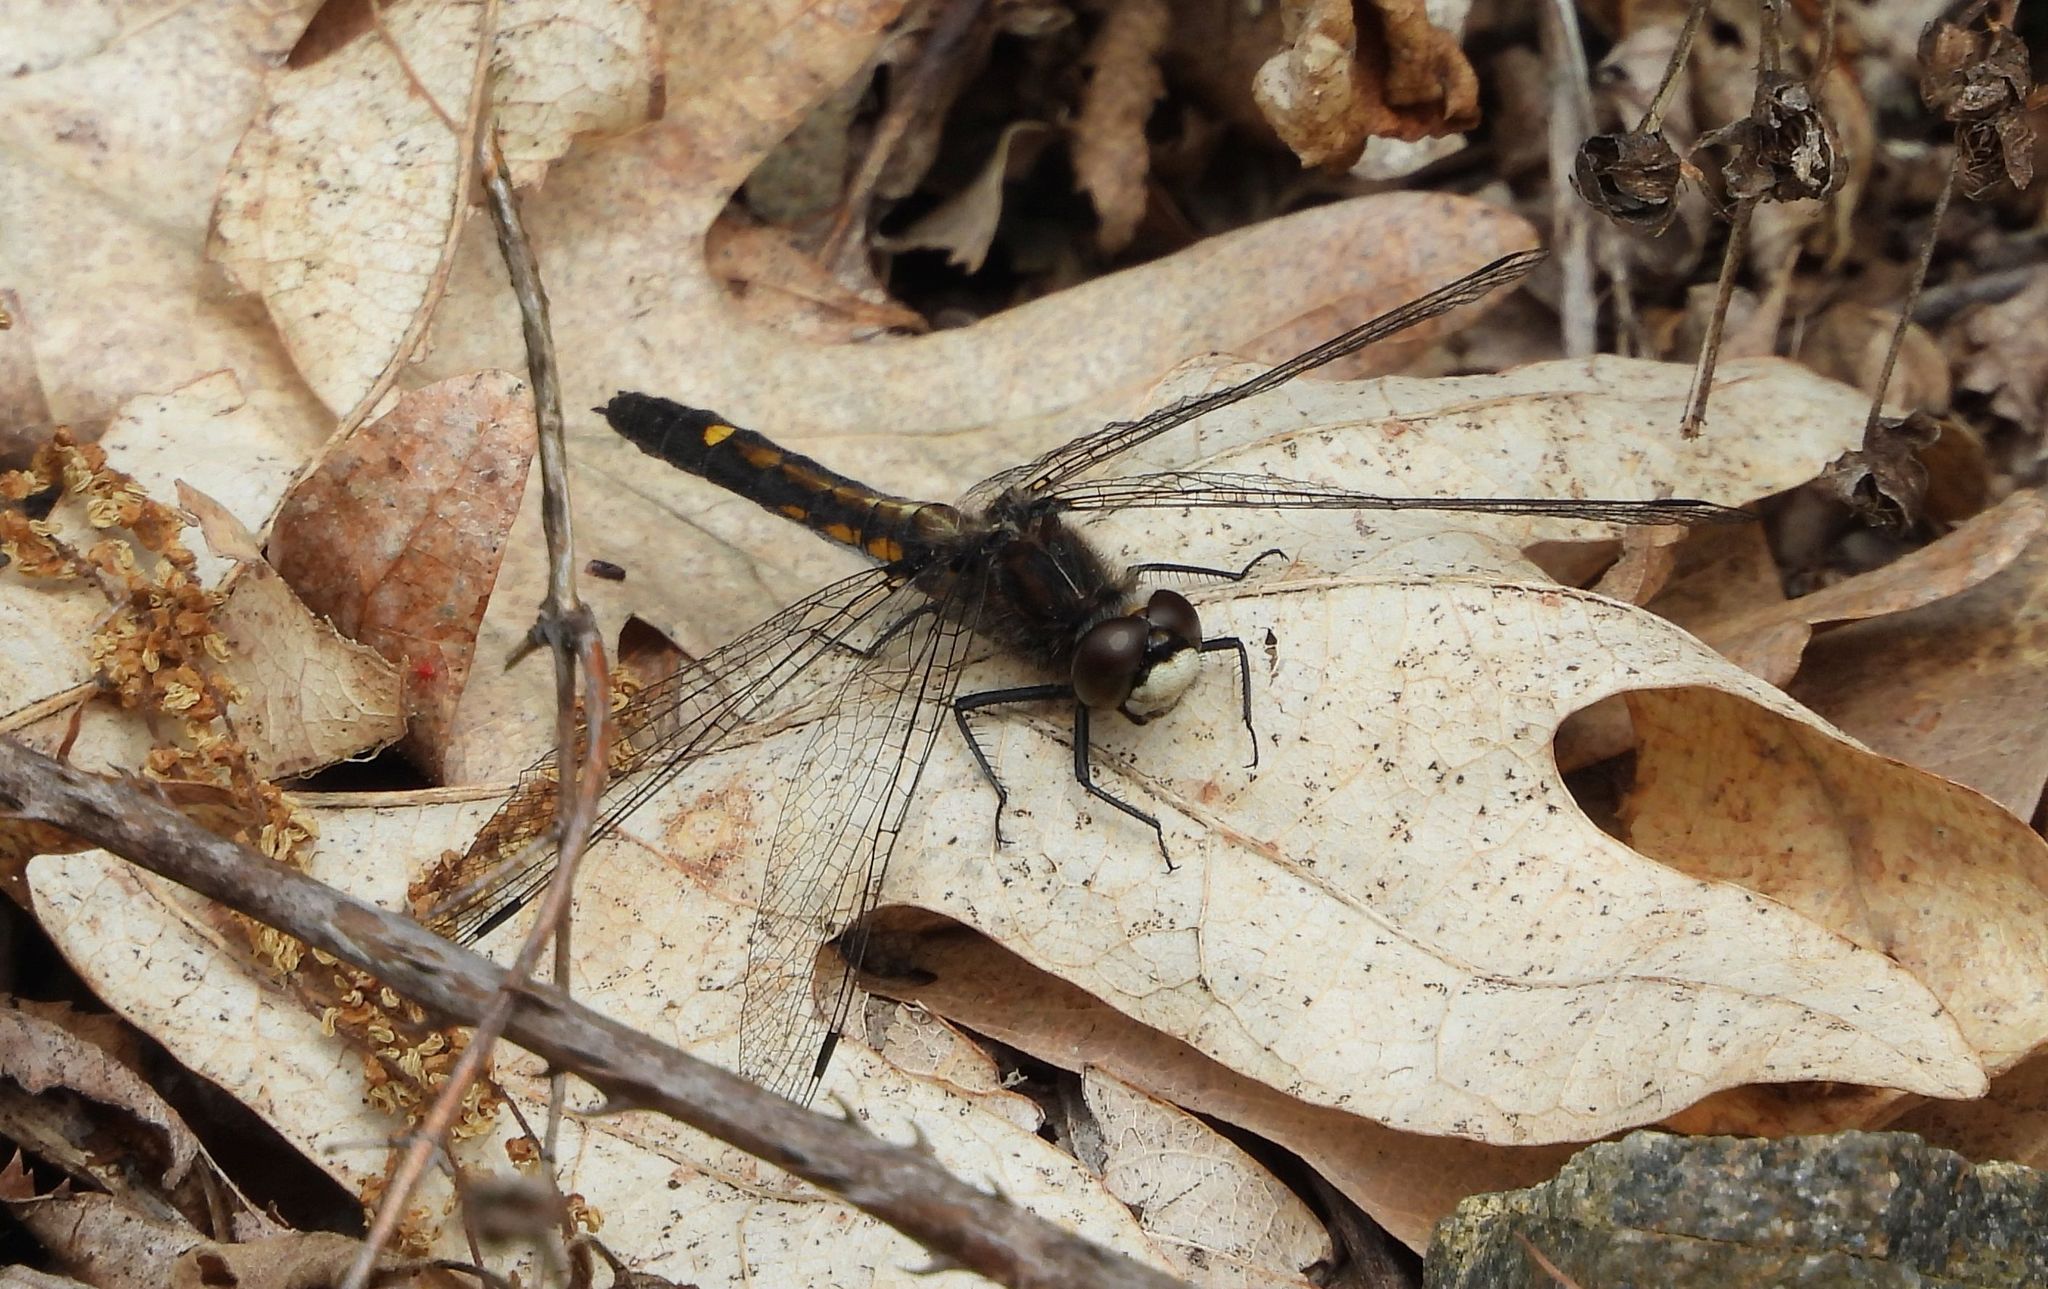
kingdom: Animalia
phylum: Arthropoda
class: Insecta
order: Odonata
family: Libellulidae
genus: Leucorrhinia
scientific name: Leucorrhinia intacta
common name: Dot-tailed whiteface
